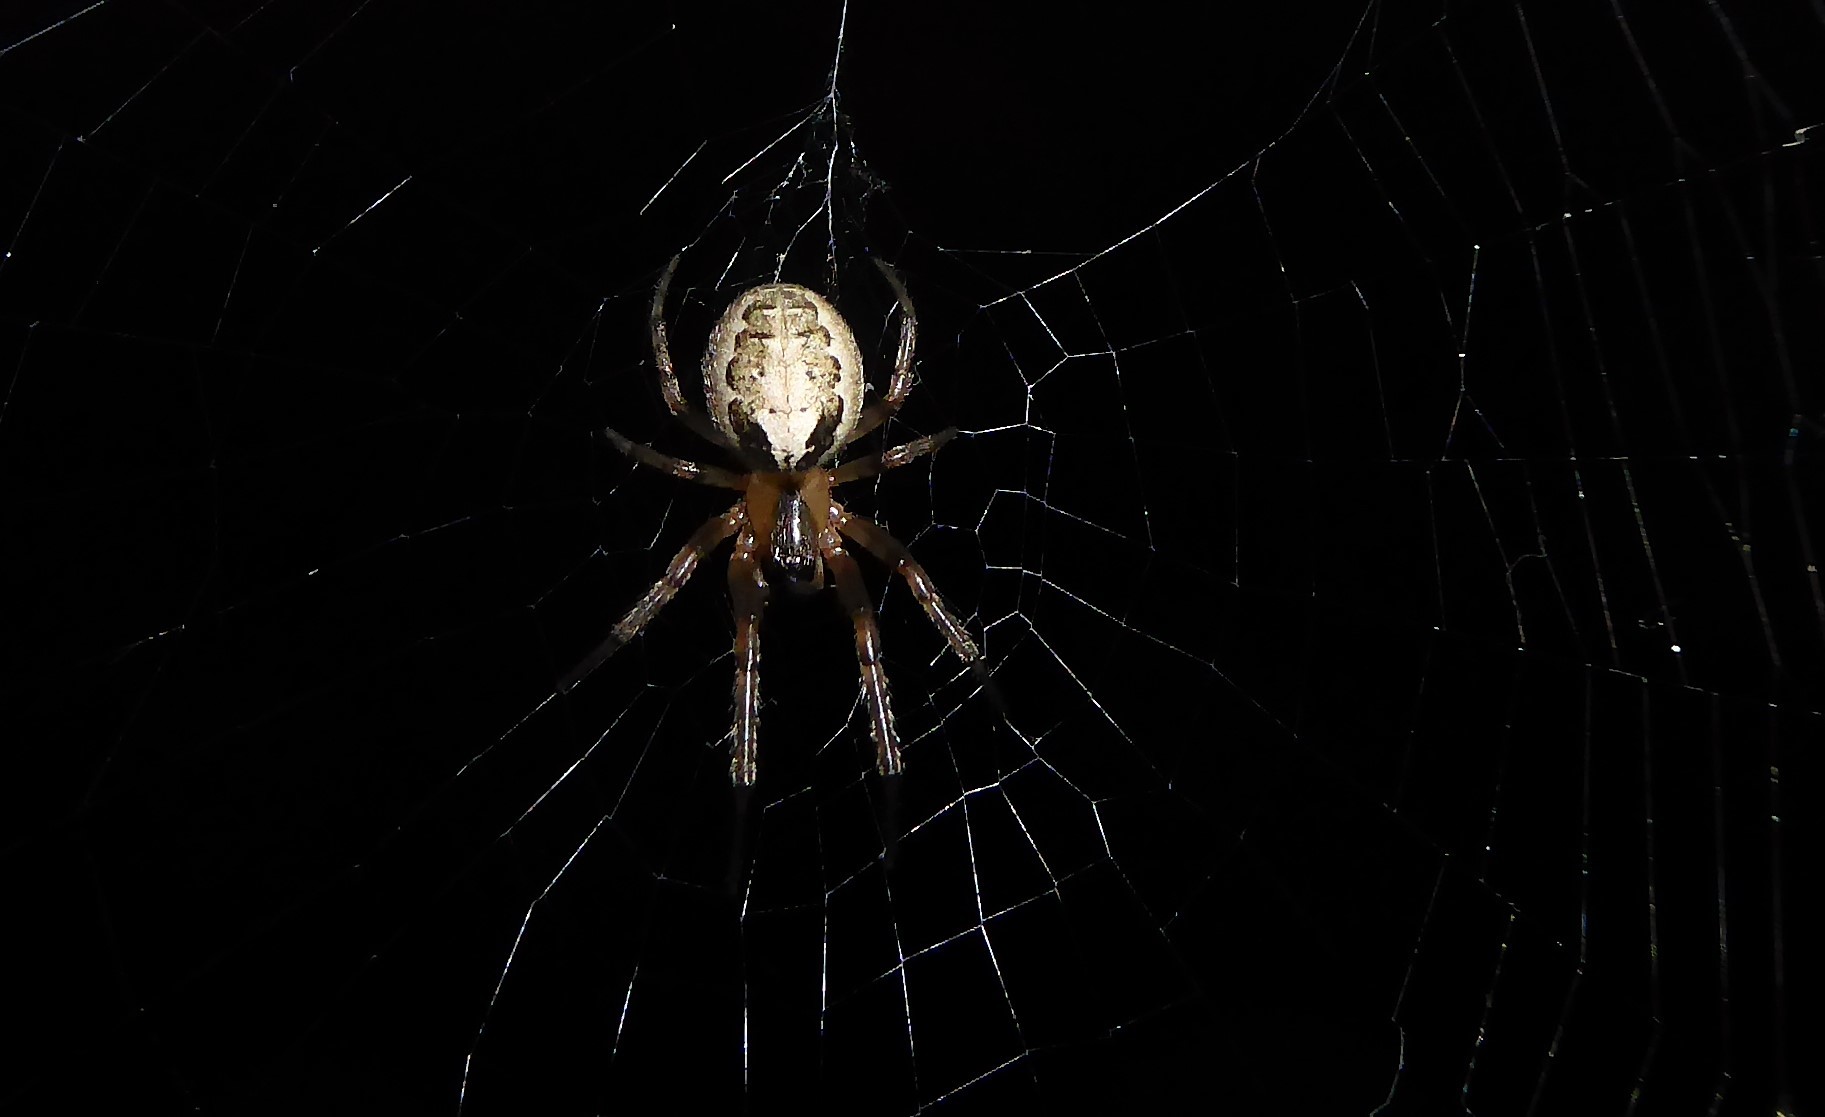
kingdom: Animalia
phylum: Arthropoda
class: Arachnida
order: Araneae
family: Araneidae
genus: Zygiella
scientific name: Zygiella x-notata
